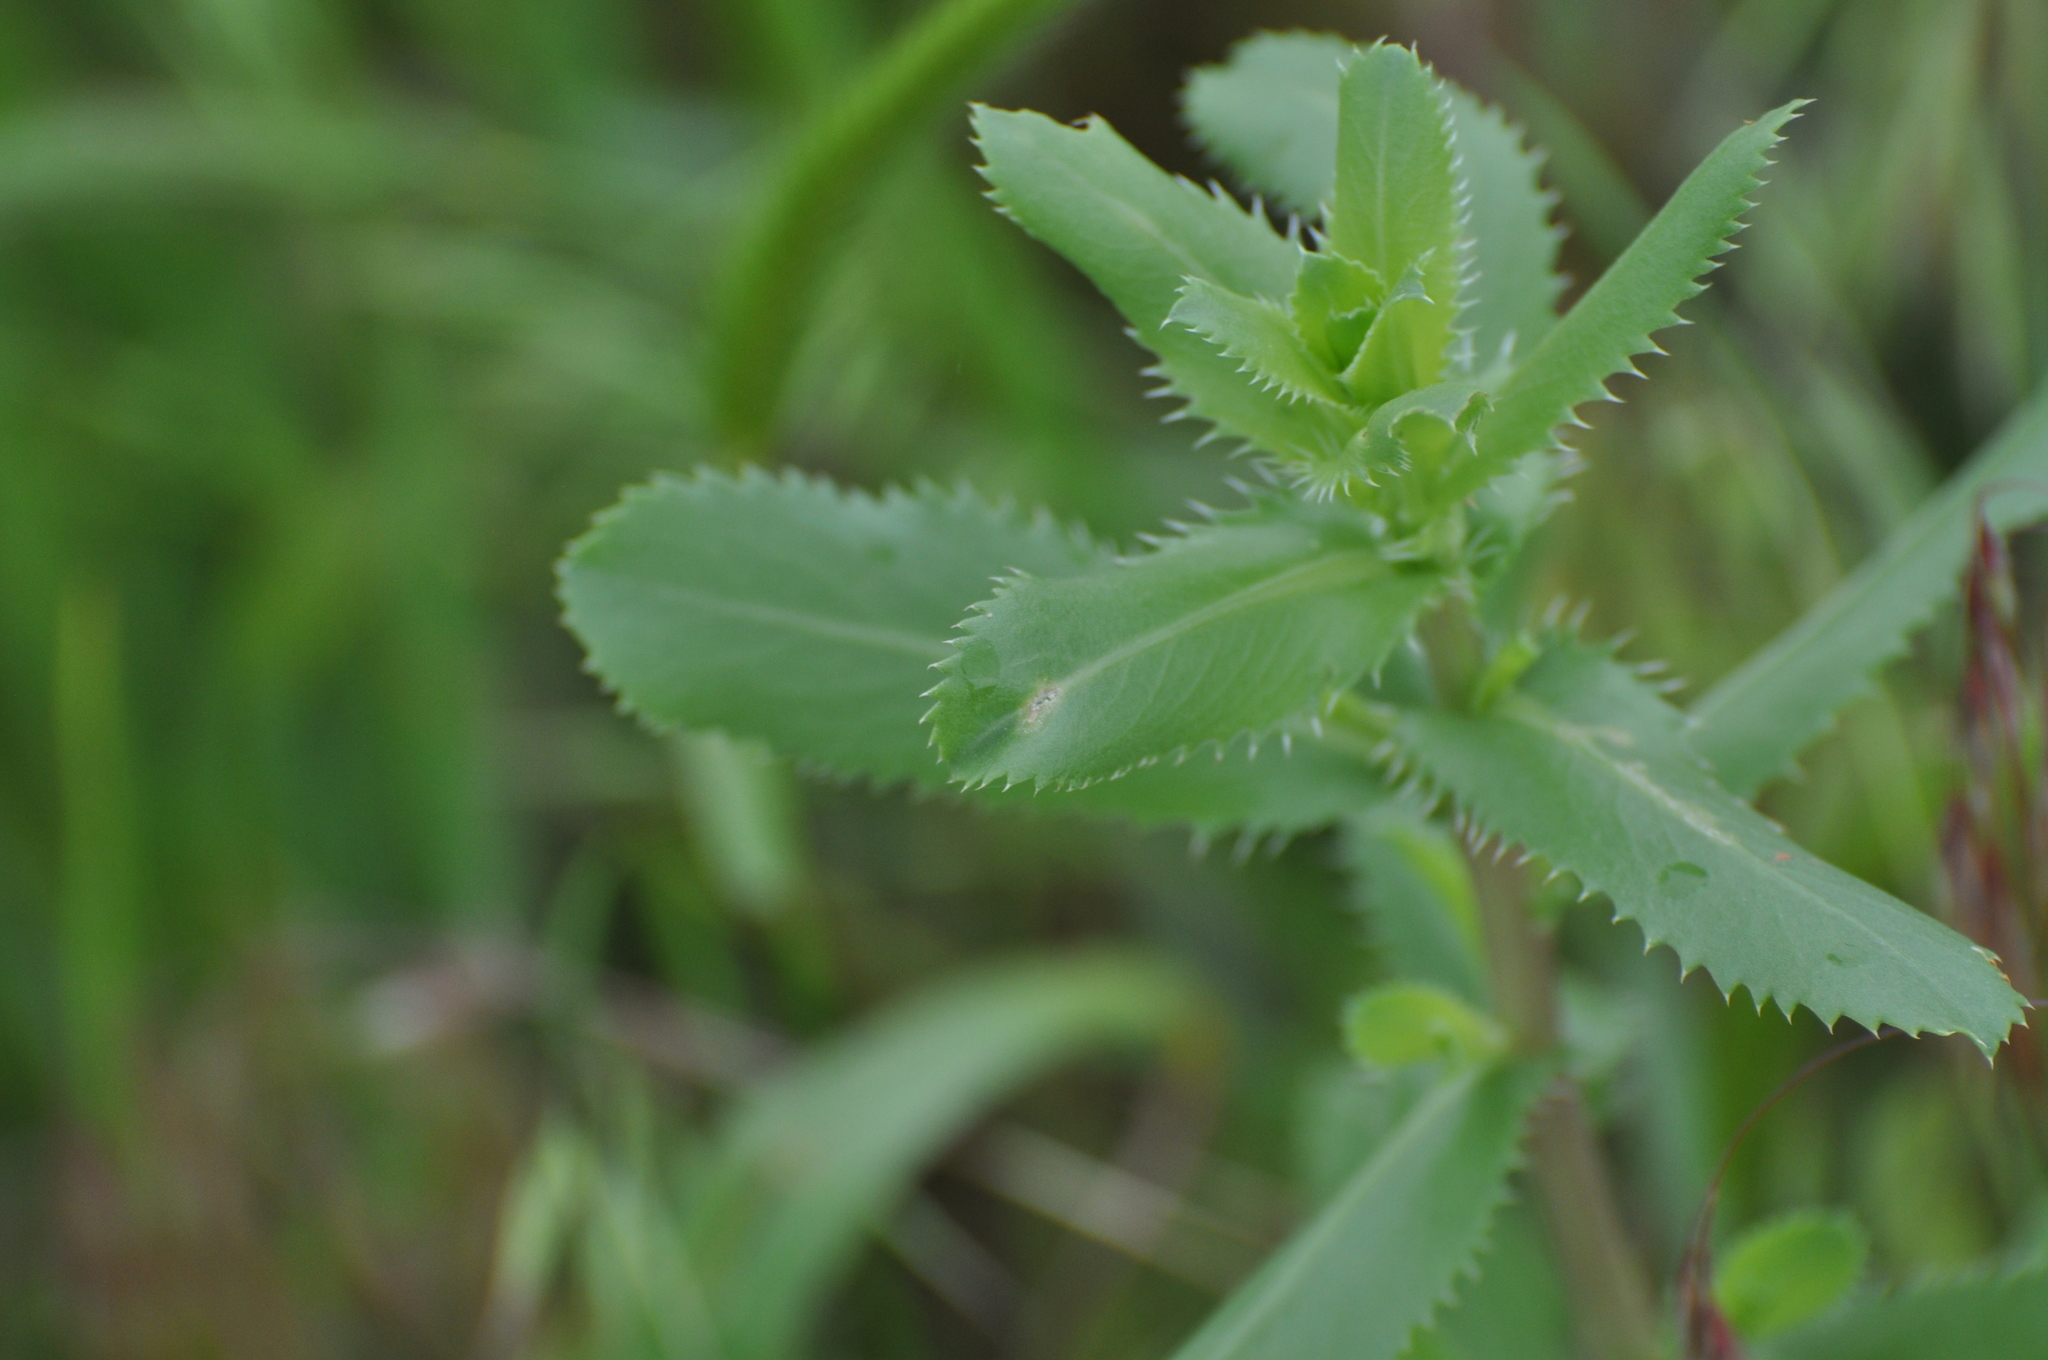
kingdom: Plantae
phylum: Tracheophyta
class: Magnoliopsida
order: Asterales
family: Asteraceae
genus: Grindelia
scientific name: Grindelia ciliata
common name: Goldenweed
